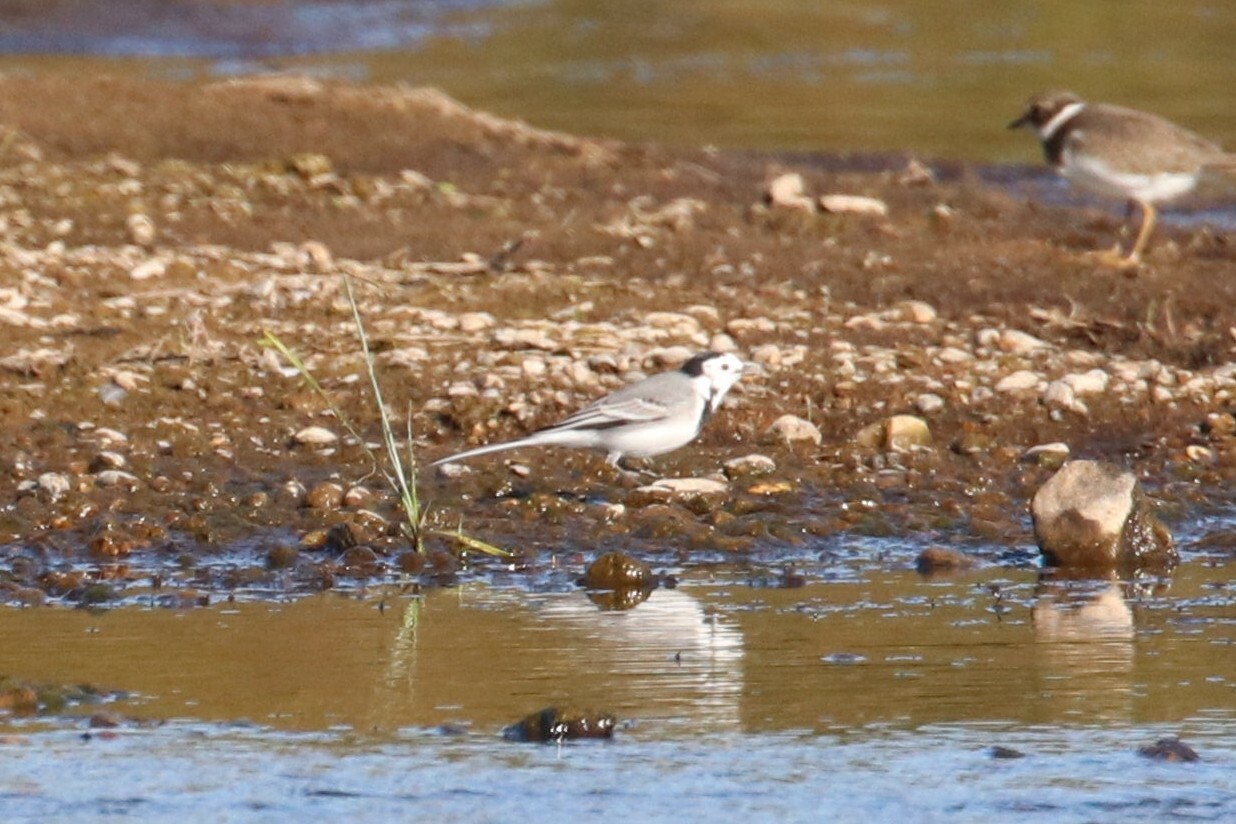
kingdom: Animalia
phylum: Chordata
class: Aves
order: Passeriformes
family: Motacillidae
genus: Motacilla
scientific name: Motacilla alba
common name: White wagtail
